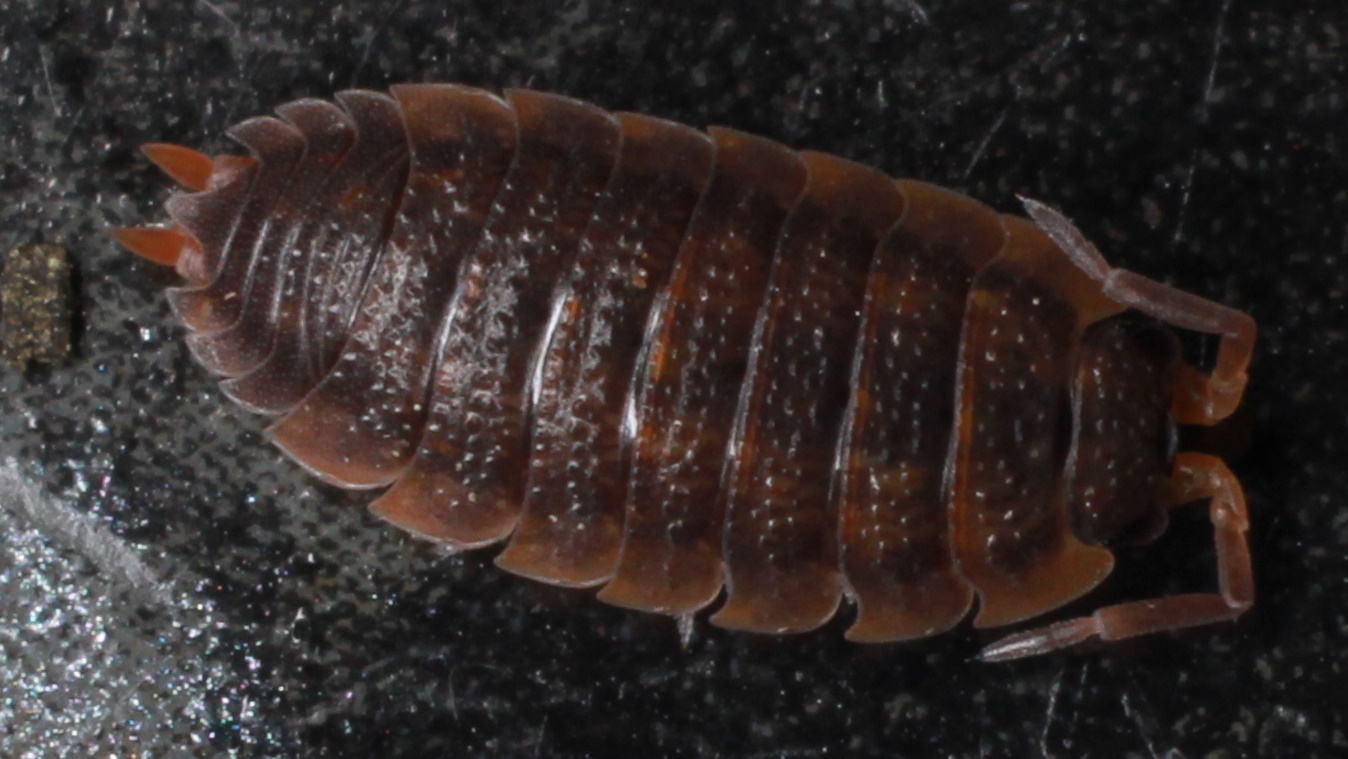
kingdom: Animalia
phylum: Arthropoda
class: Malacostraca
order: Isopoda
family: Porcellionidae
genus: Porcellio
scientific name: Porcellio scaber
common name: Common rough woodlouse
